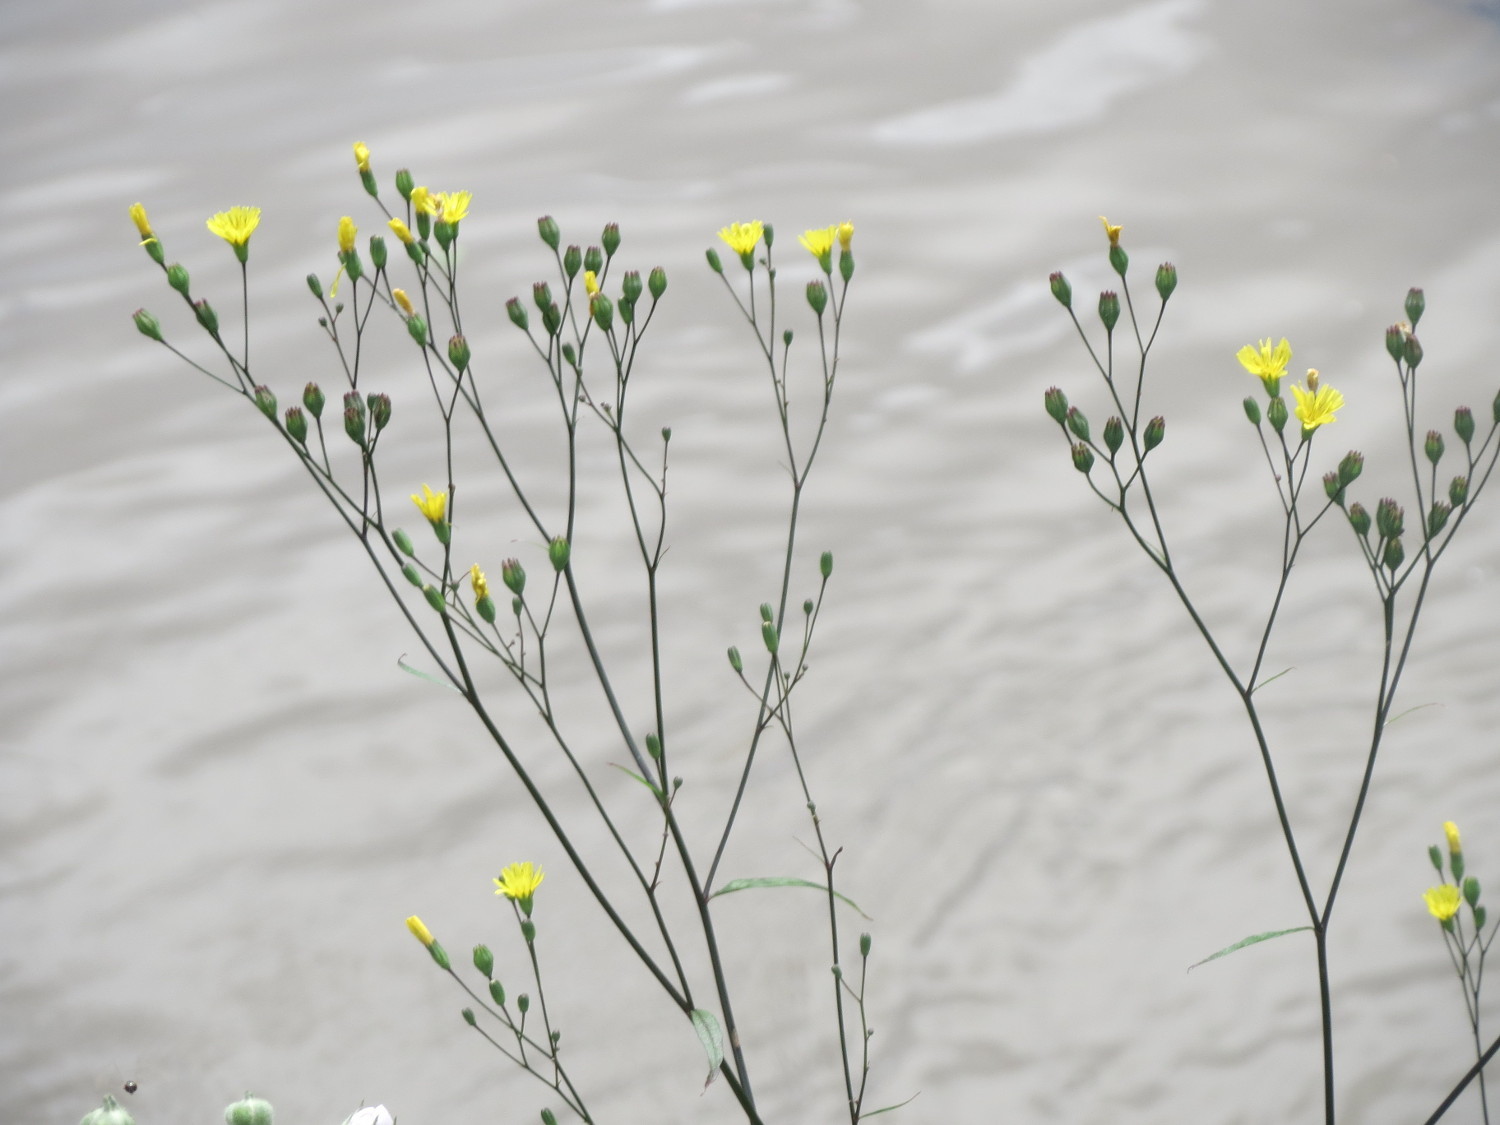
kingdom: Plantae
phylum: Tracheophyta
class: Magnoliopsida
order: Asterales
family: Asteraceae
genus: Lapsana
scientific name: Lapsana communis
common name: Nipplewort
